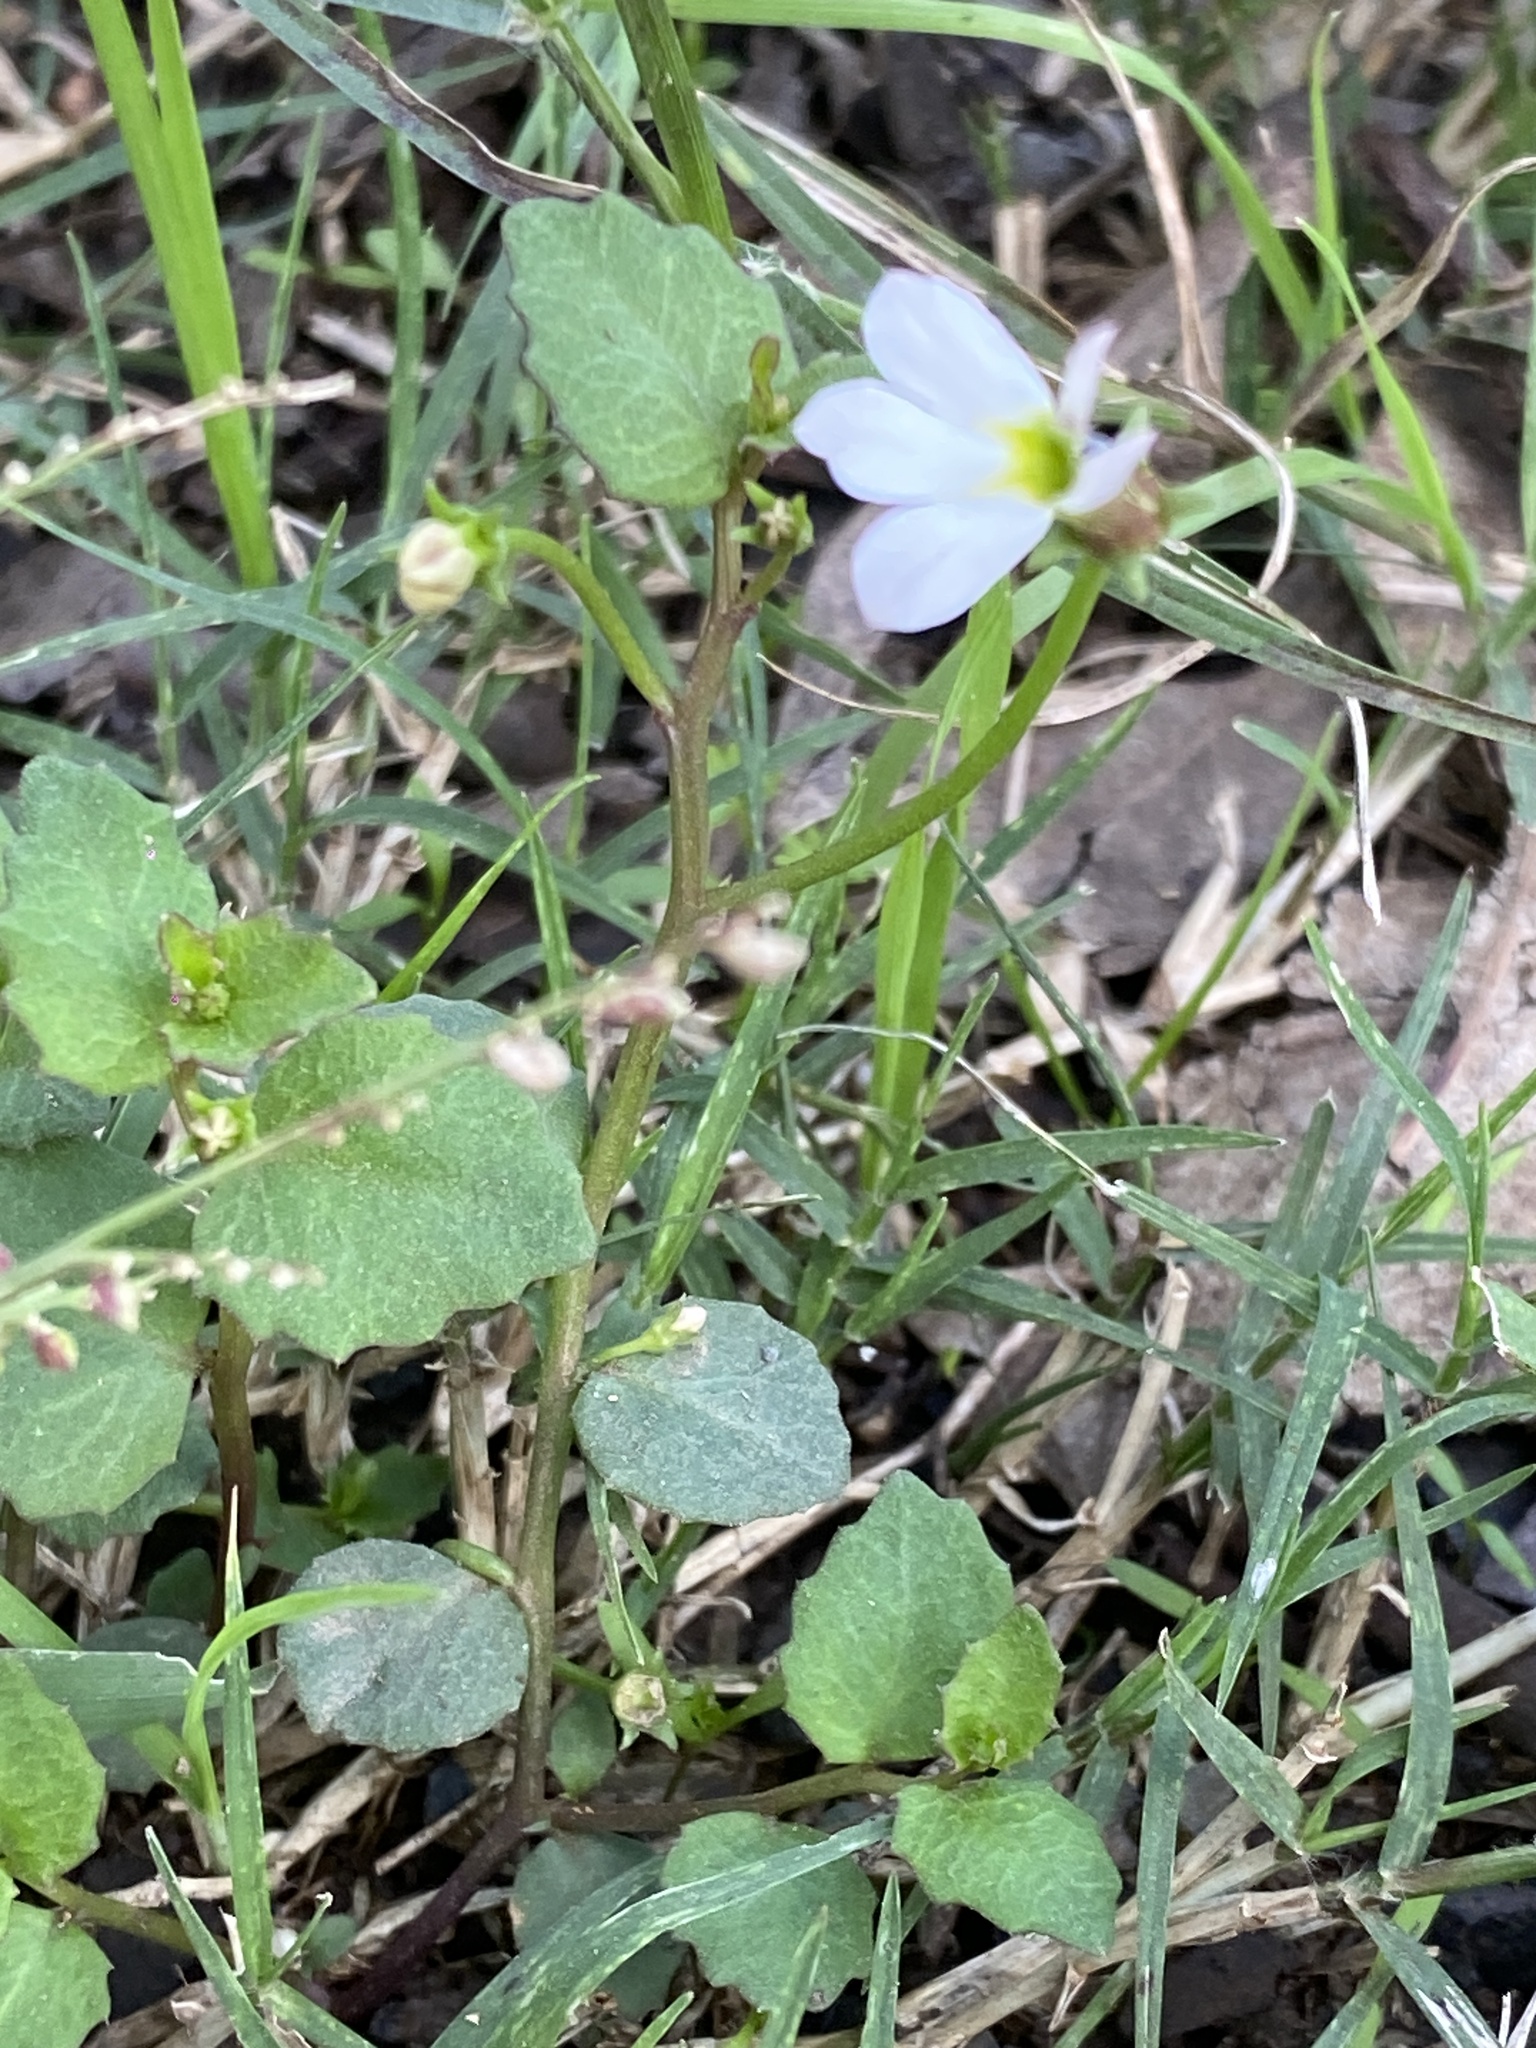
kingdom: Plantae
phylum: Tracheophyta
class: Magnoliopsida
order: Asterales
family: Campanulaceae
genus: Lobelia
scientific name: Lobelia purpurascens
